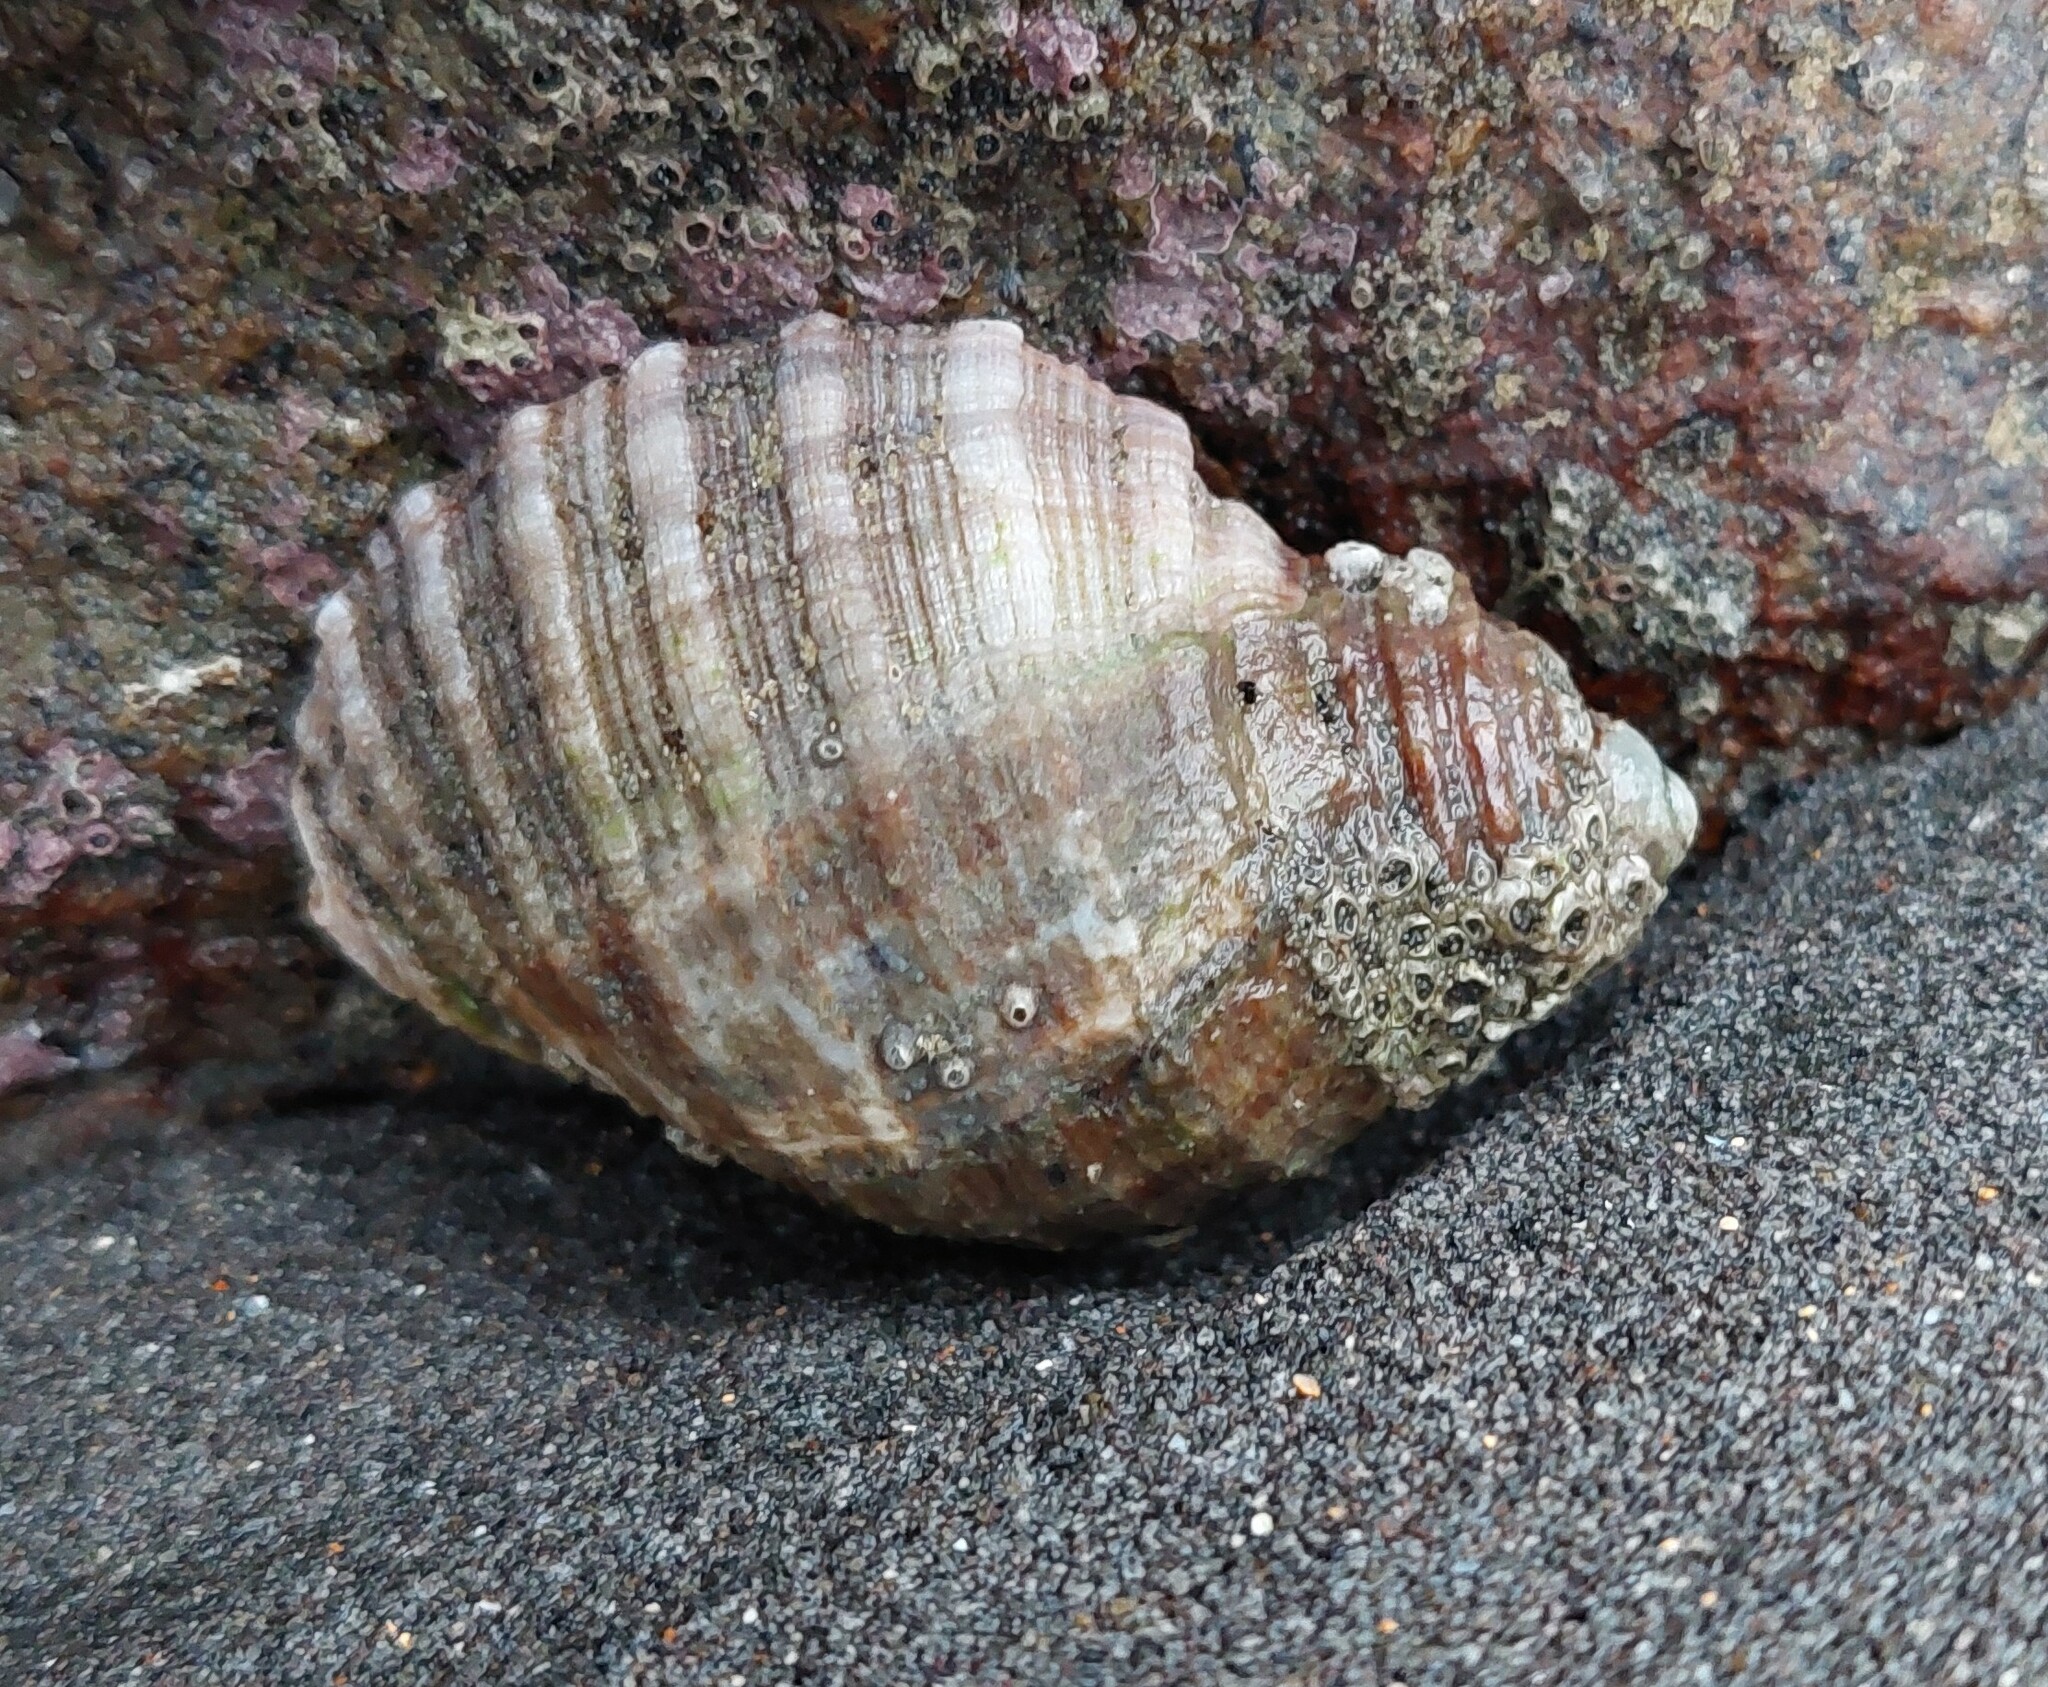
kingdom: Animalia
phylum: Mollusca
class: Gastropoda
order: Neogastropoda
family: Muricidae
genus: Dicathais
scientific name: Dicathais orbita
